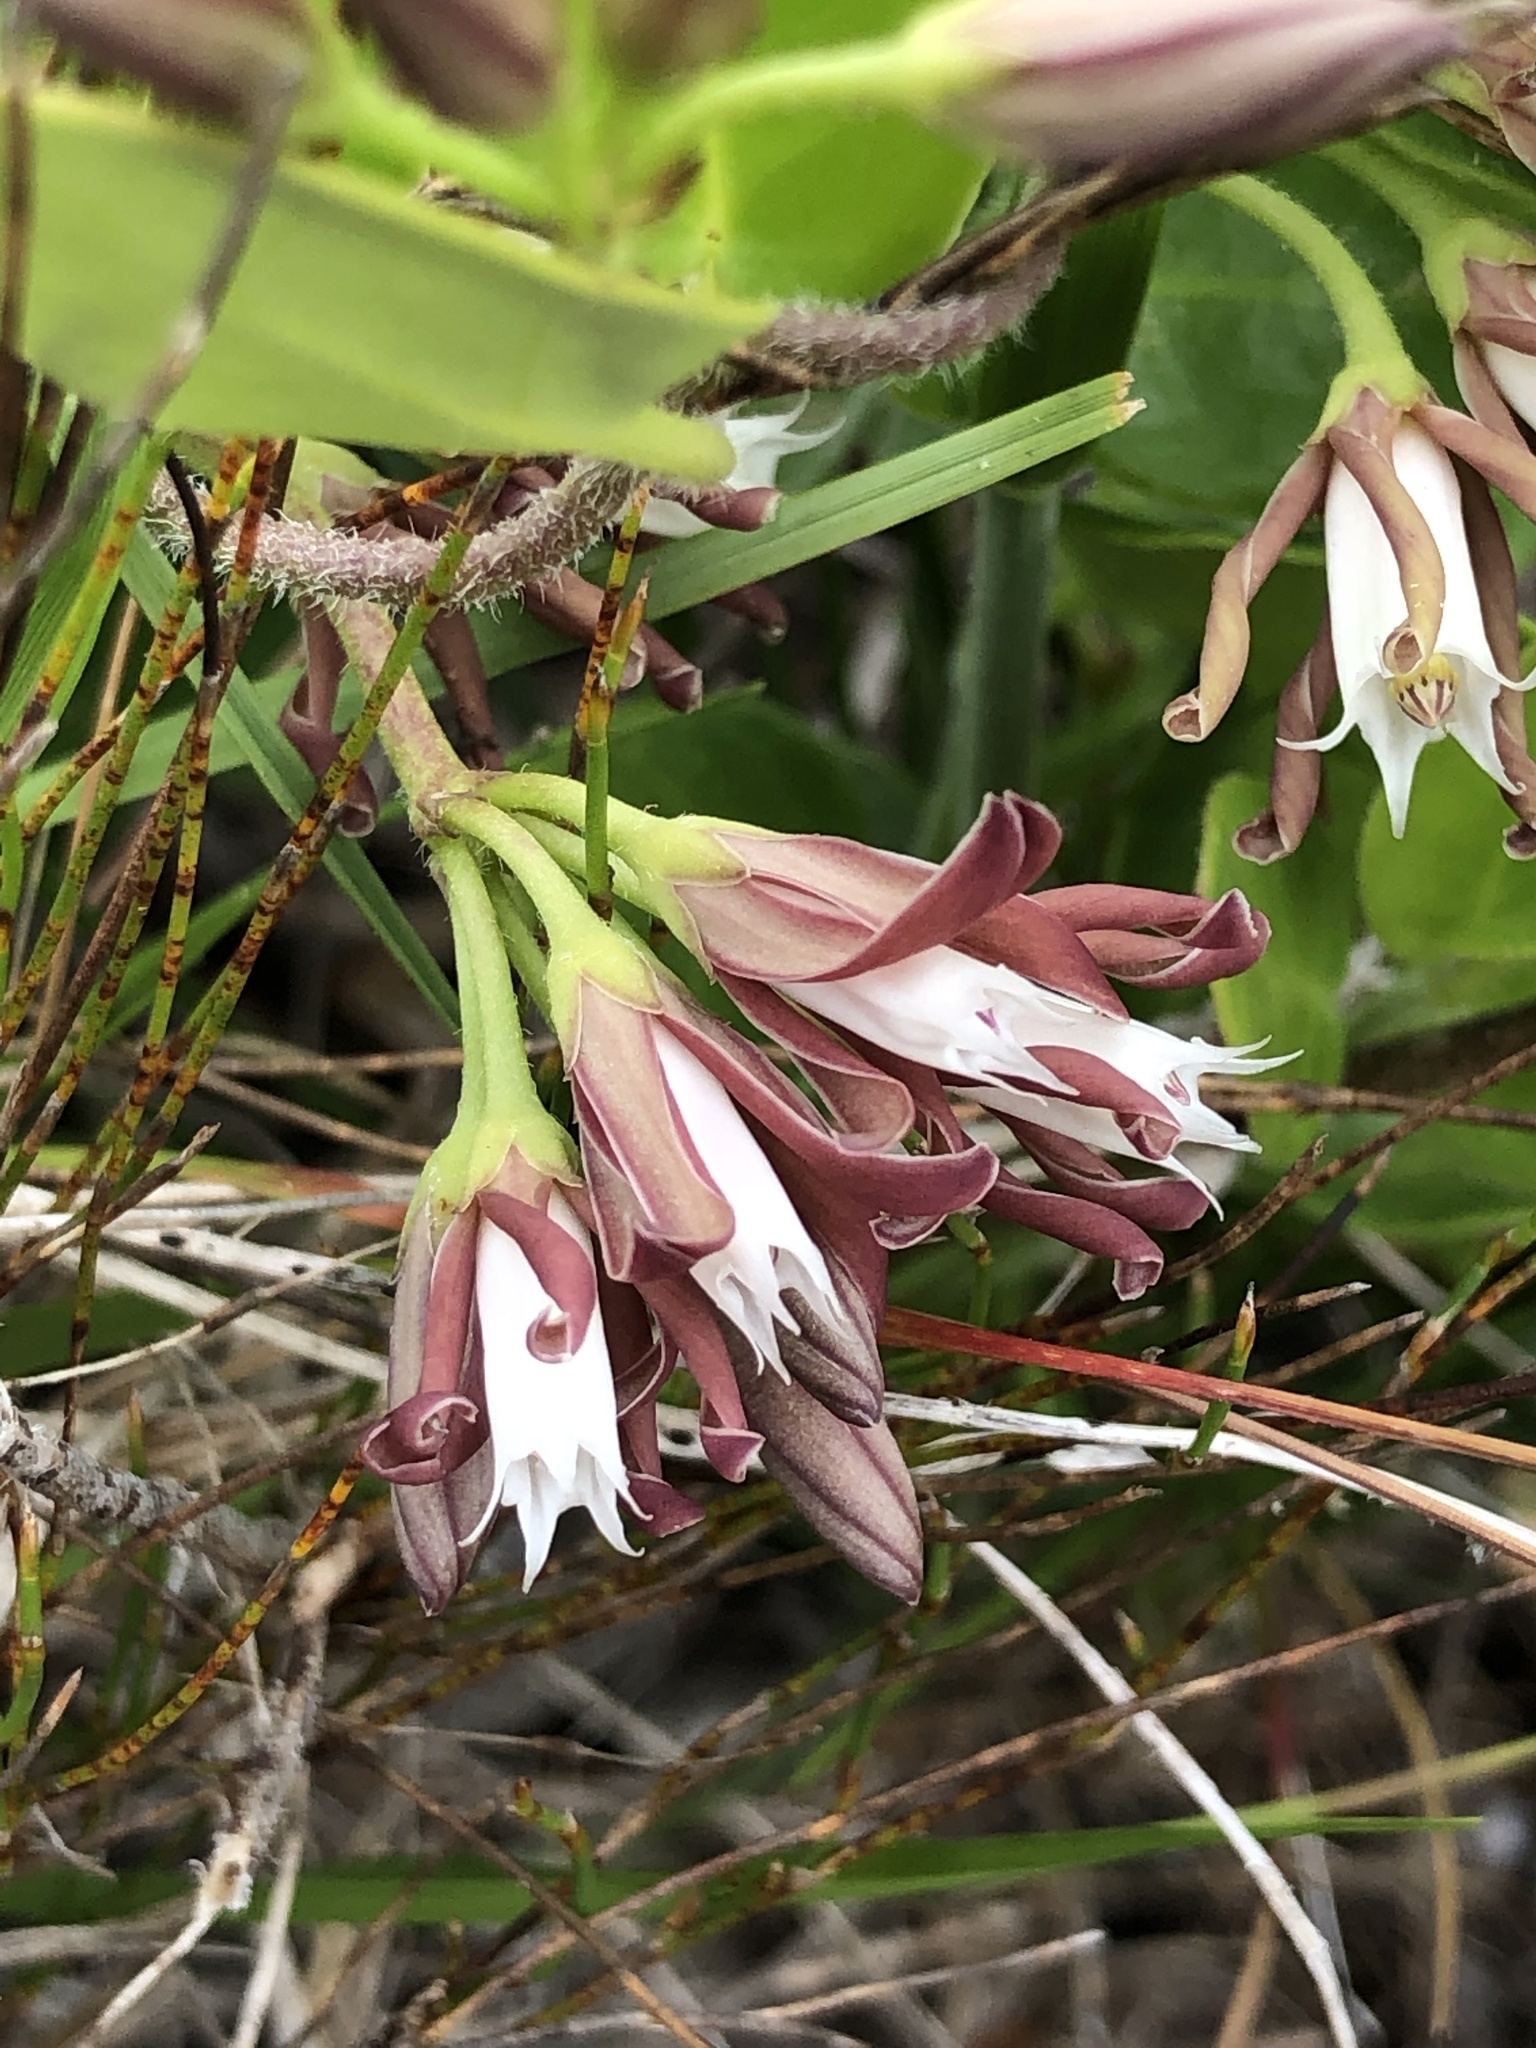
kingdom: Plantae
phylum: Tracheophyta
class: Magnoliopsida
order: Gentianales
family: Apocynaceae
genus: Cynanchum
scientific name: Cynanchum africanum
